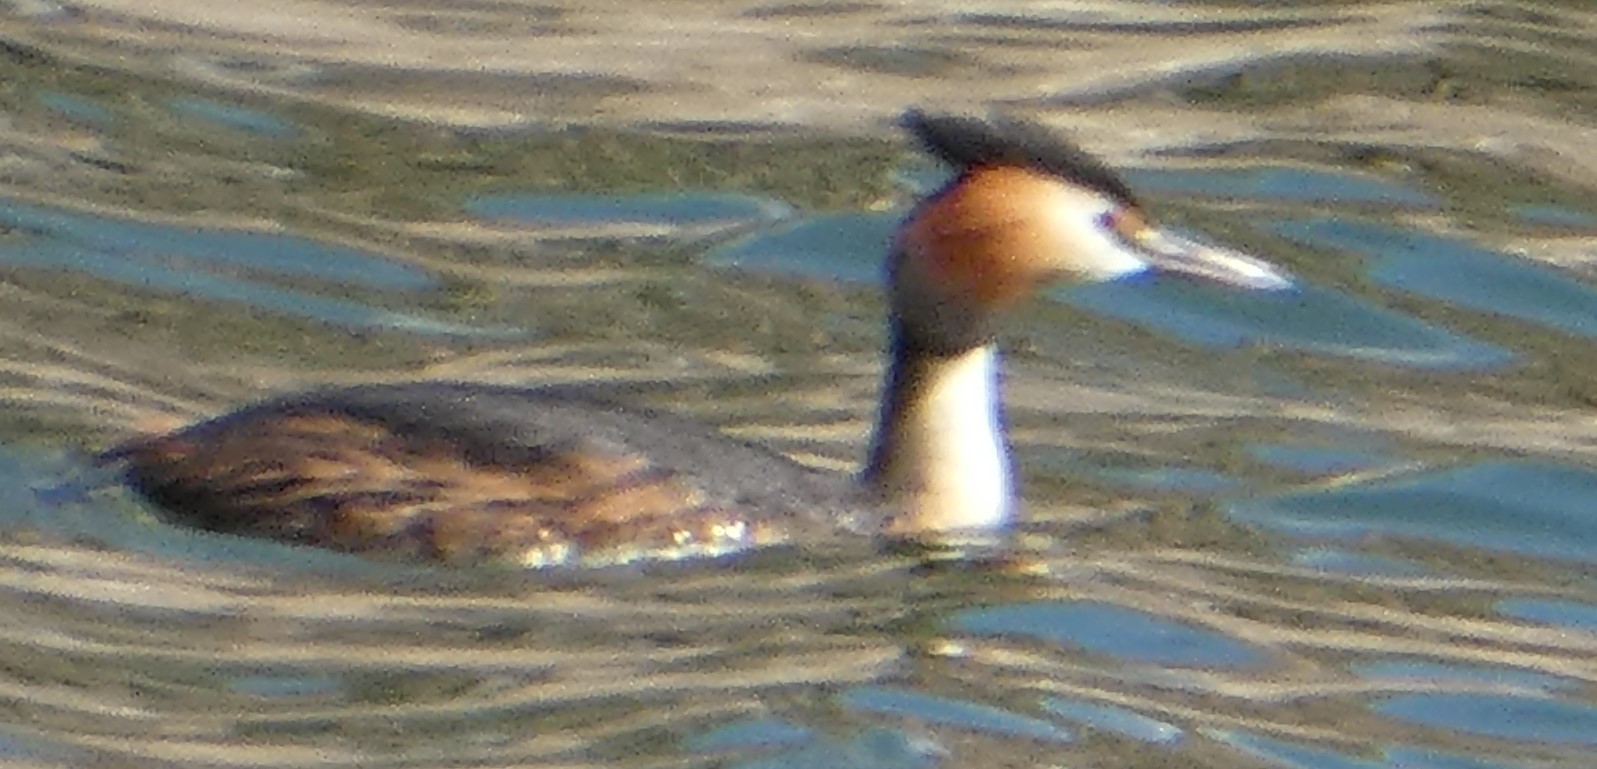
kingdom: Animalia
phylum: Chordata
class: Aves
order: Podicipediformes
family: Podicipedidae
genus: Podiceps
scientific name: Podiceps cristatus
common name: Great crested grebe
